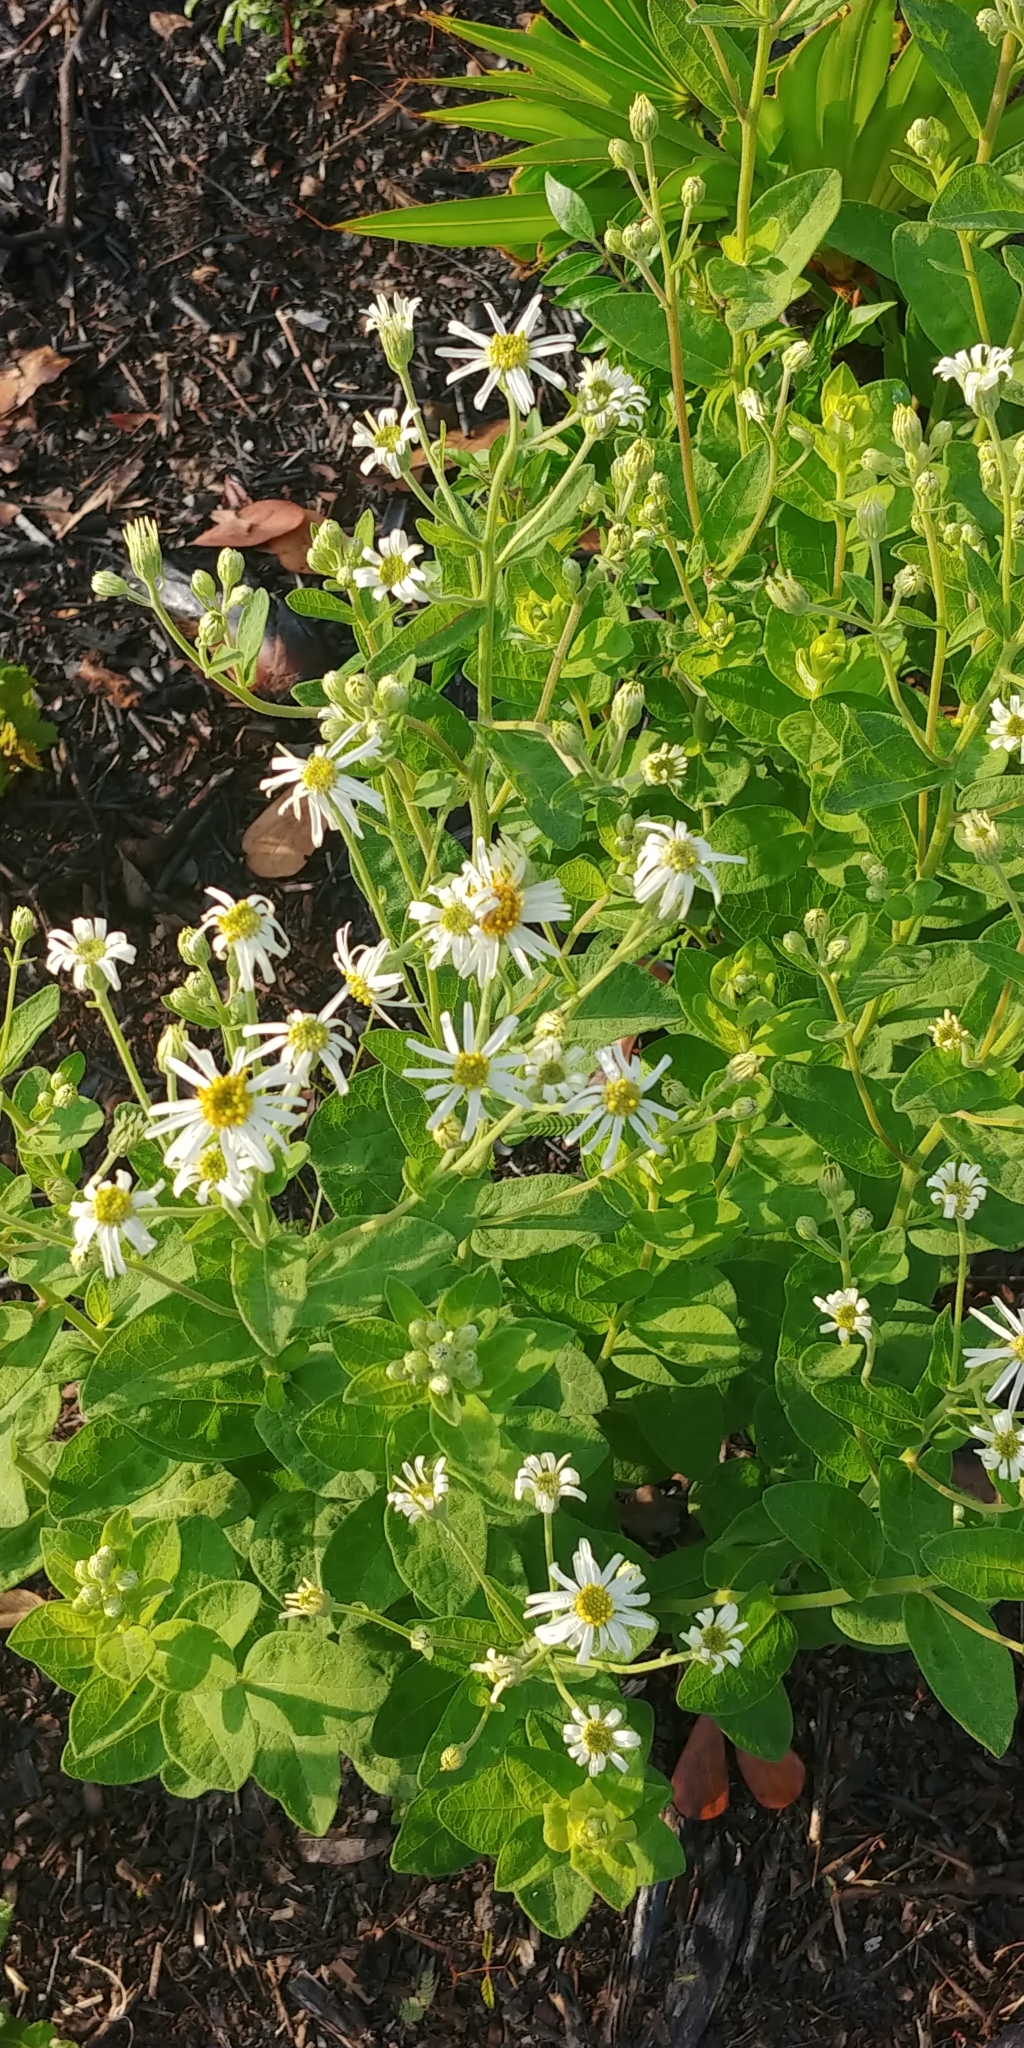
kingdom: Plantae
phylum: Tracheophyta
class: Magnoliopsida
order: Asterales
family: Asteraceae
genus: Oclemena
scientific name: Oclemena reticulata
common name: Pinebarren aster
